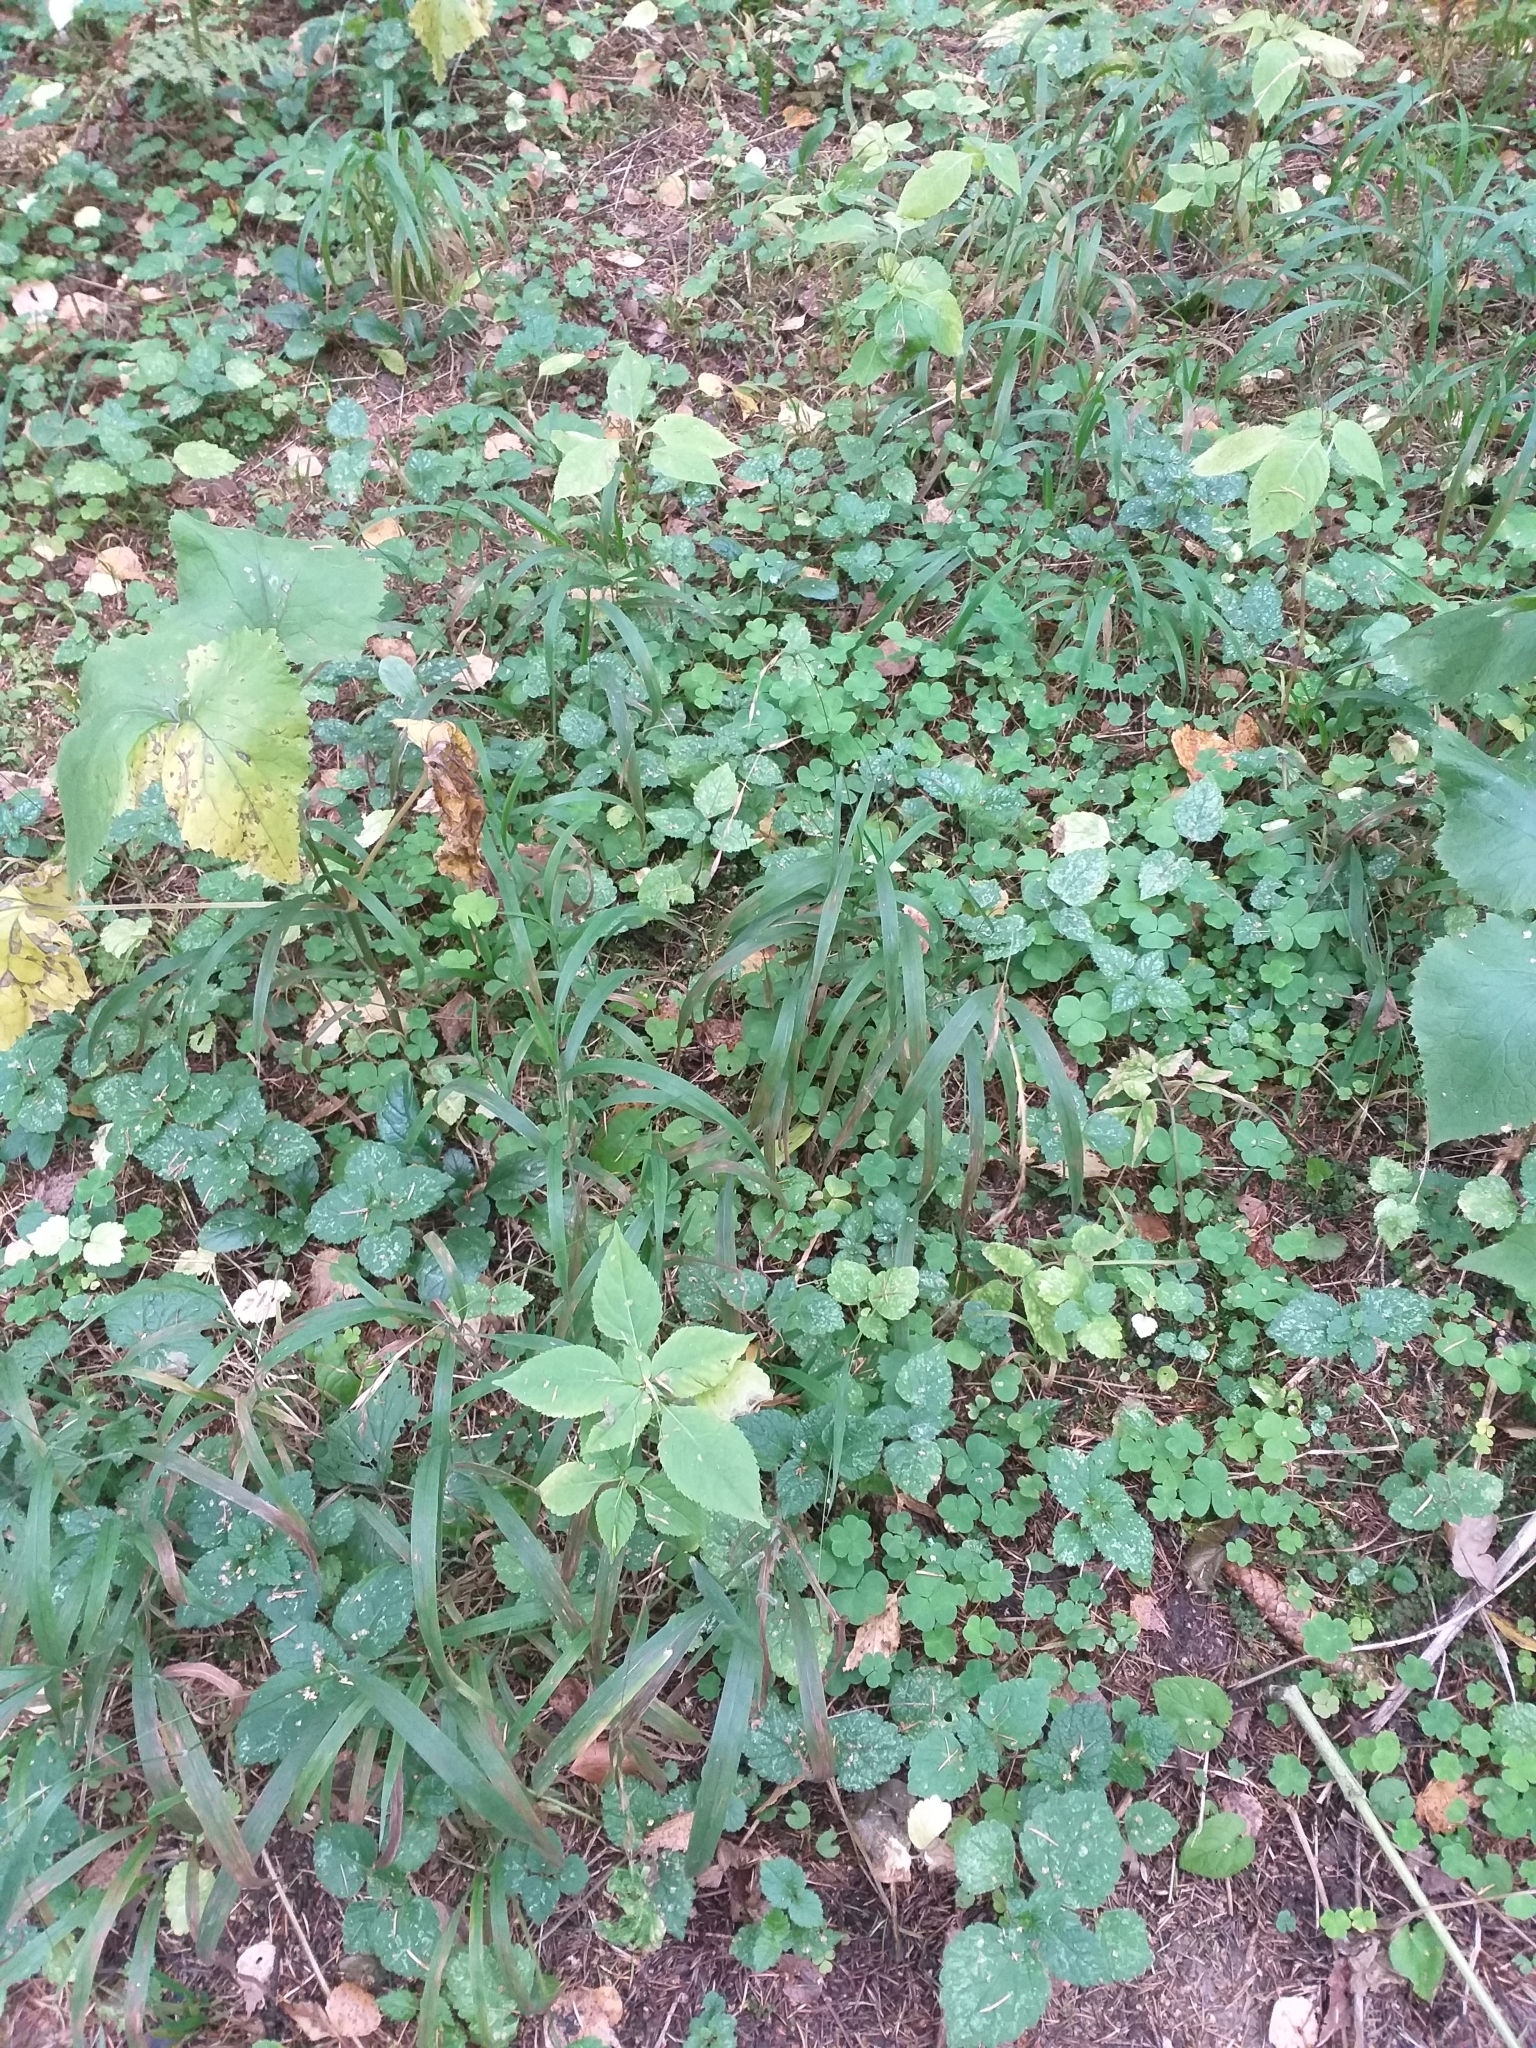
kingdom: Plantae
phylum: Tracheophyta
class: Liliopsida
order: Poales
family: Poaceae
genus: Brachypodium
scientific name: Brachypodium sylvaticum
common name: False-brome
